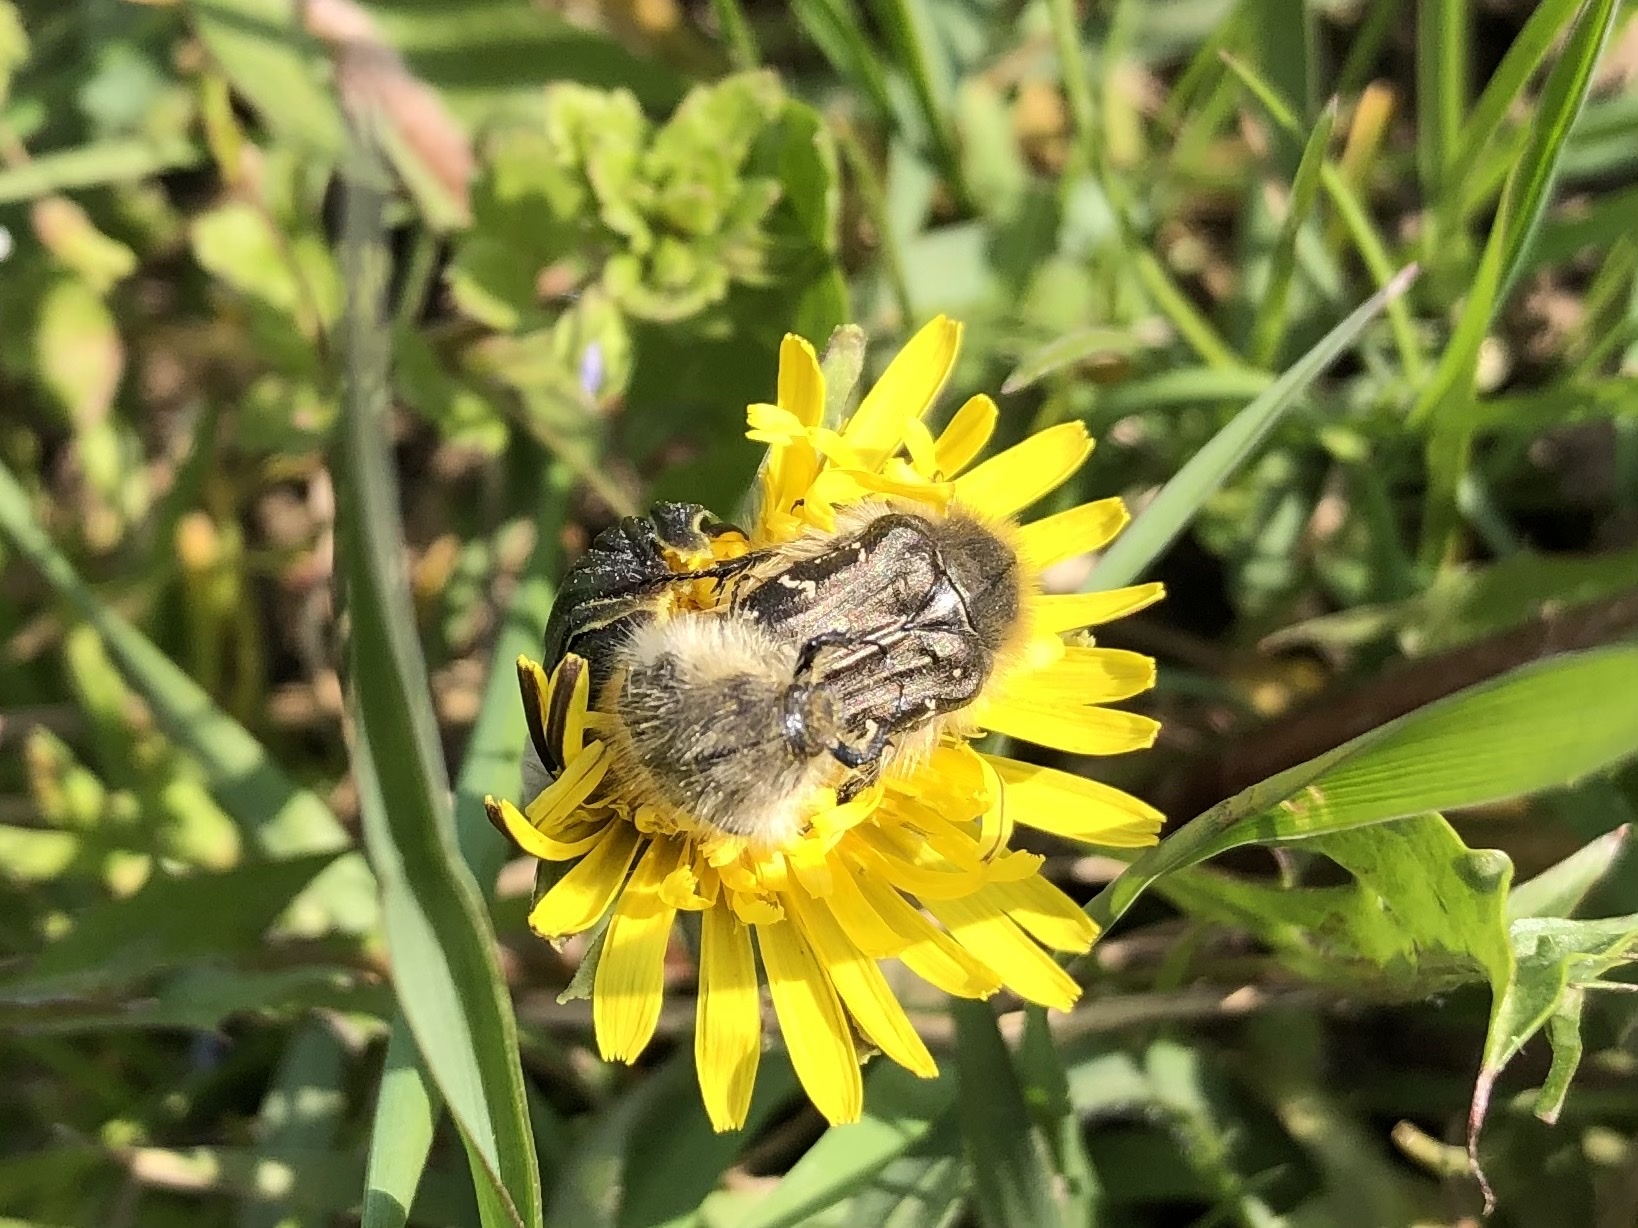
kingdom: Animalia
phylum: Arthropoda
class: Insecta
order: Coleoptera
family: Scarabaeidae
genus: Tropinota
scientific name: Tropinota hirta
